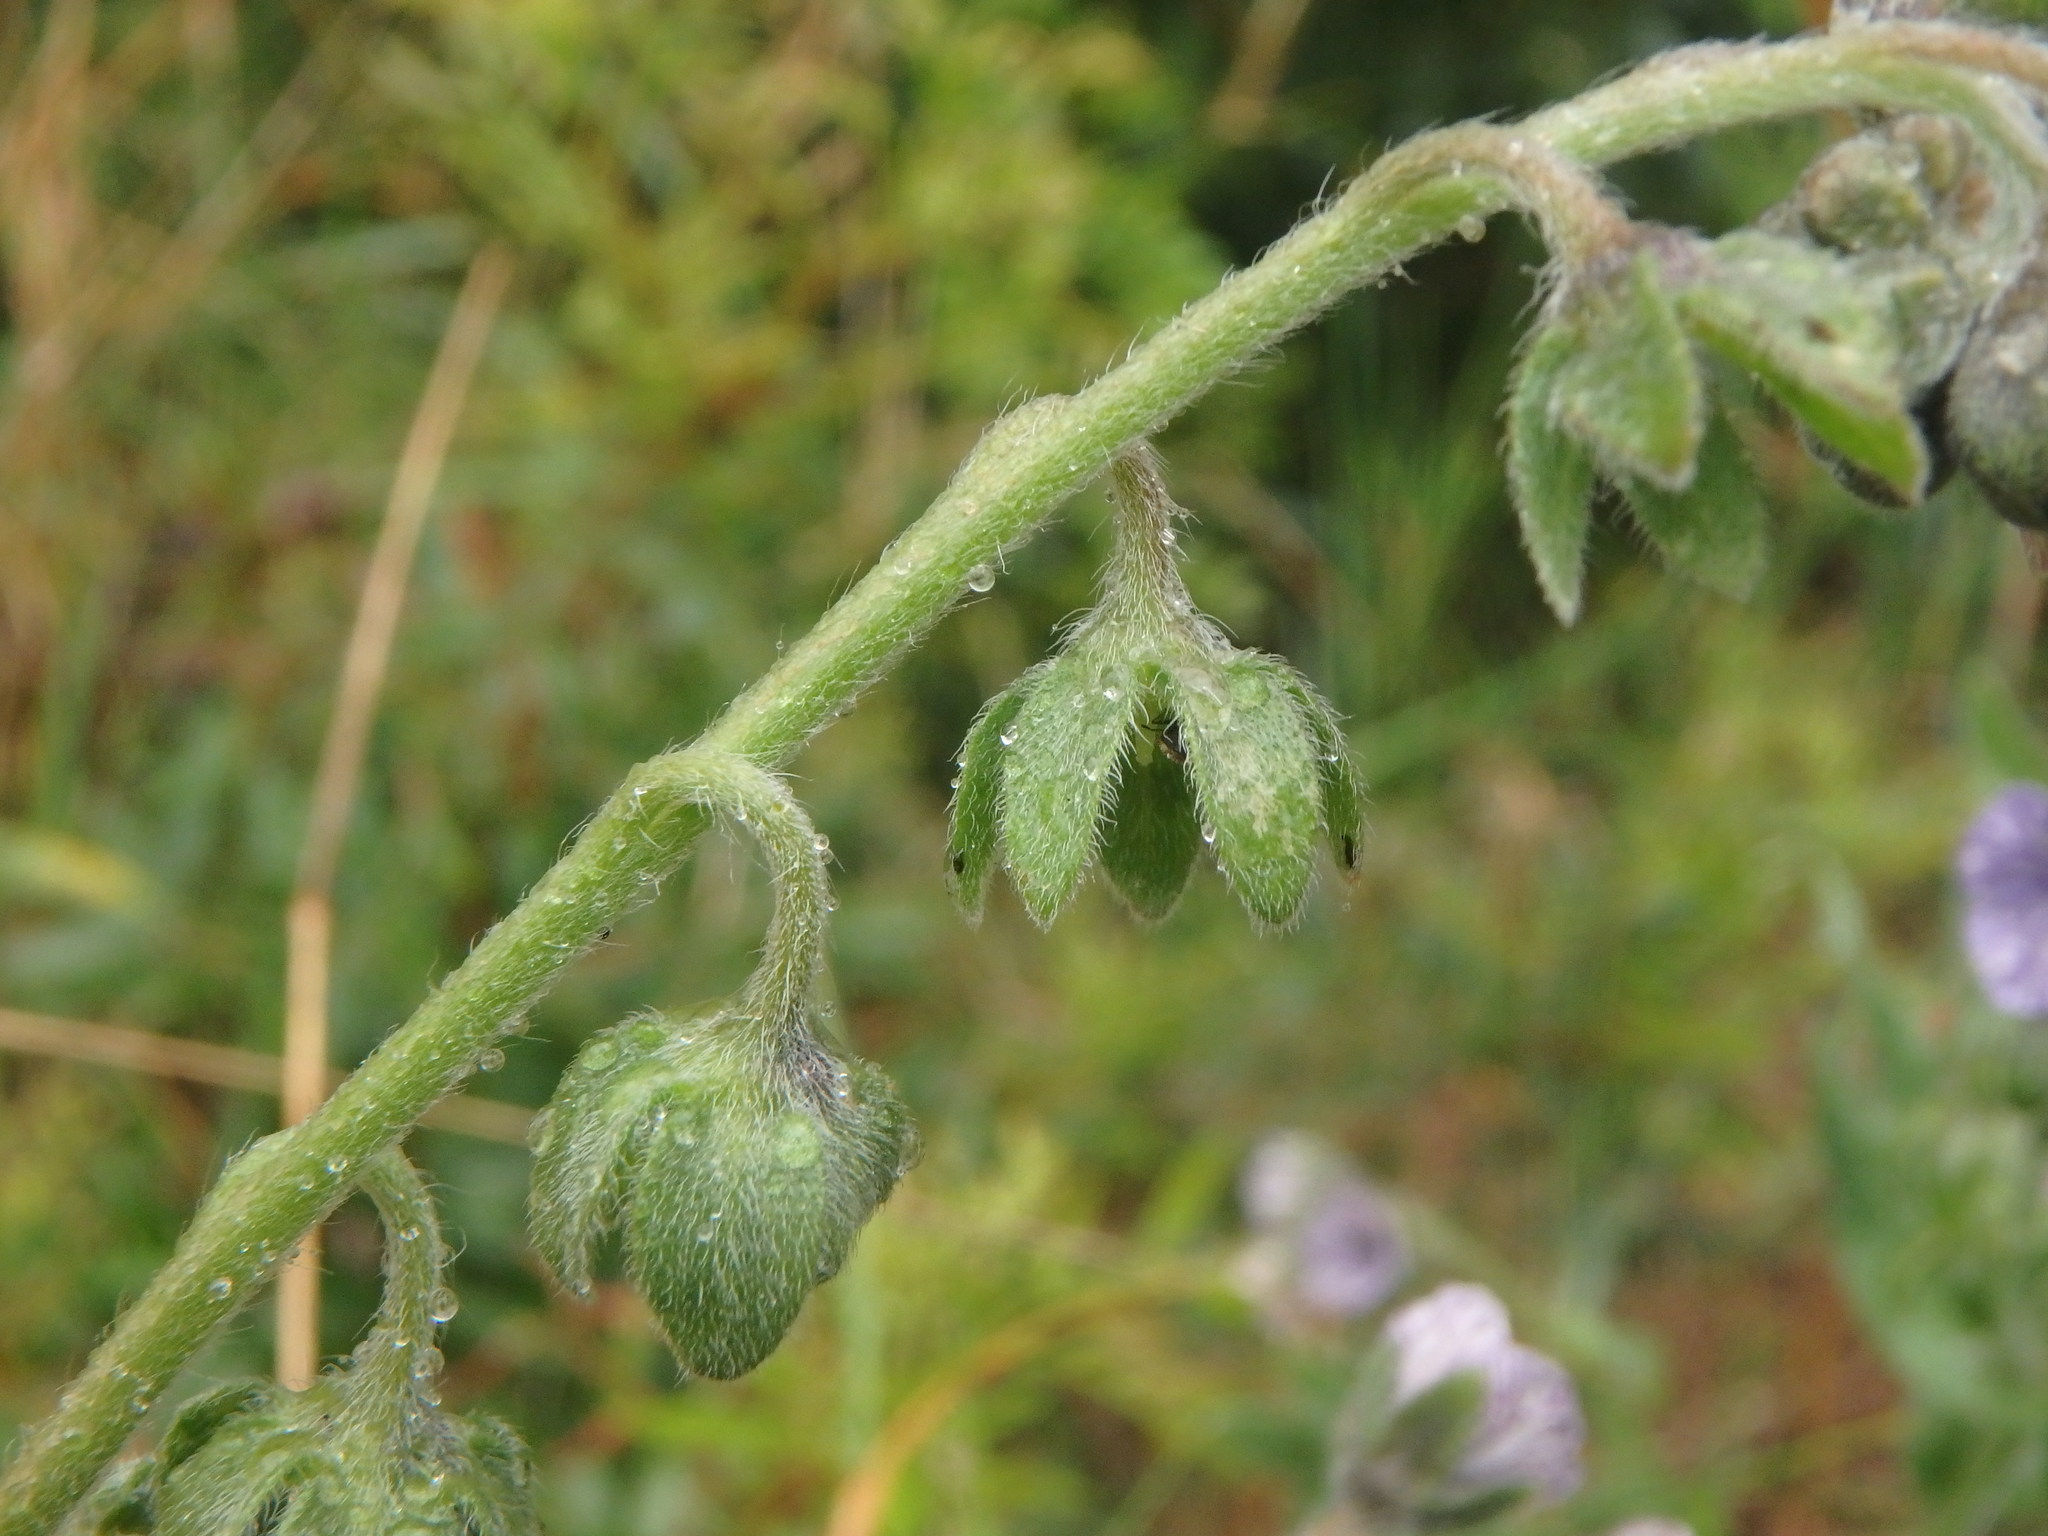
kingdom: Plantae
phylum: Tracheophyta
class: Magnoliopsida
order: Boraginales
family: Boraginaceae
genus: Cynoglossum
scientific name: Cynoglossum creticum
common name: Blue hound's tongue
